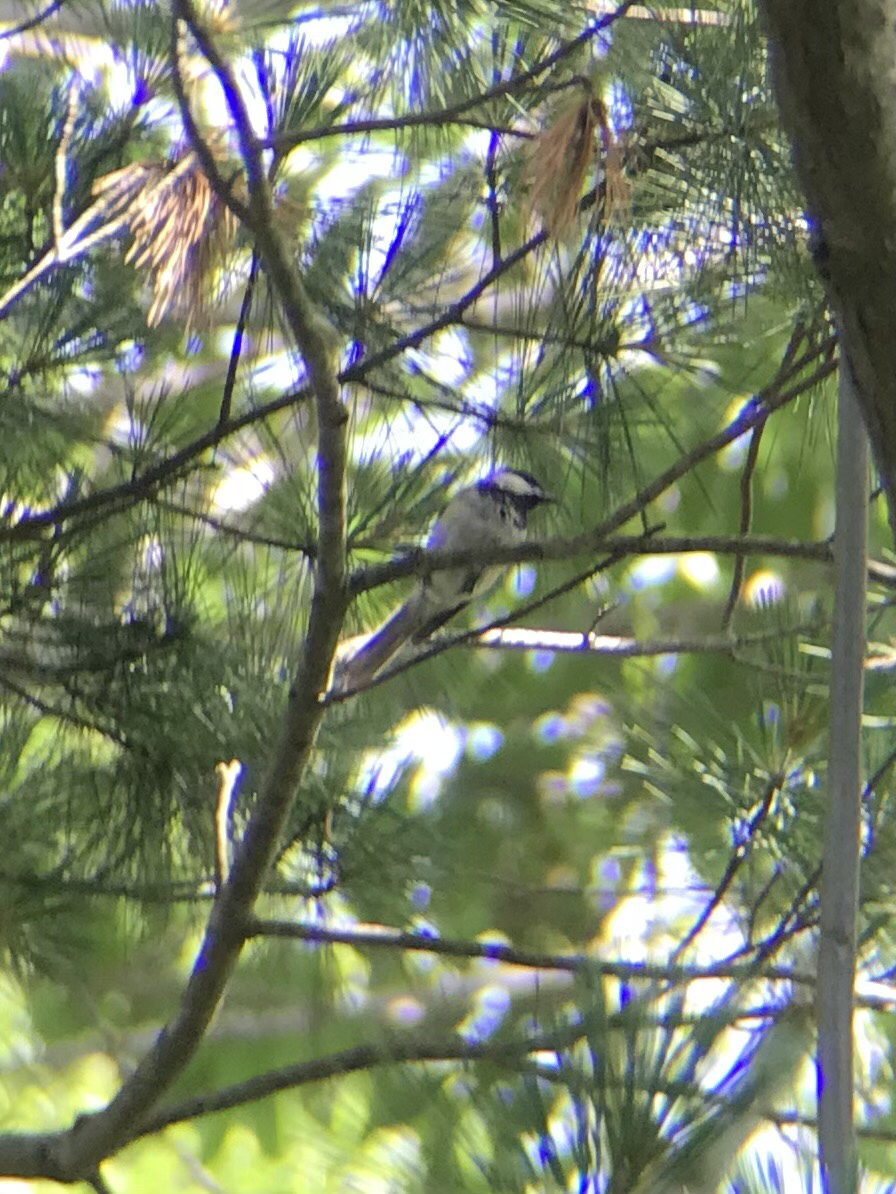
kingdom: Animalia
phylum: Chordata
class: Aves
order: Passeriformes
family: Paridae
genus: Poecile
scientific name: Poecile atricapillus
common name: Black-capped chickadee
